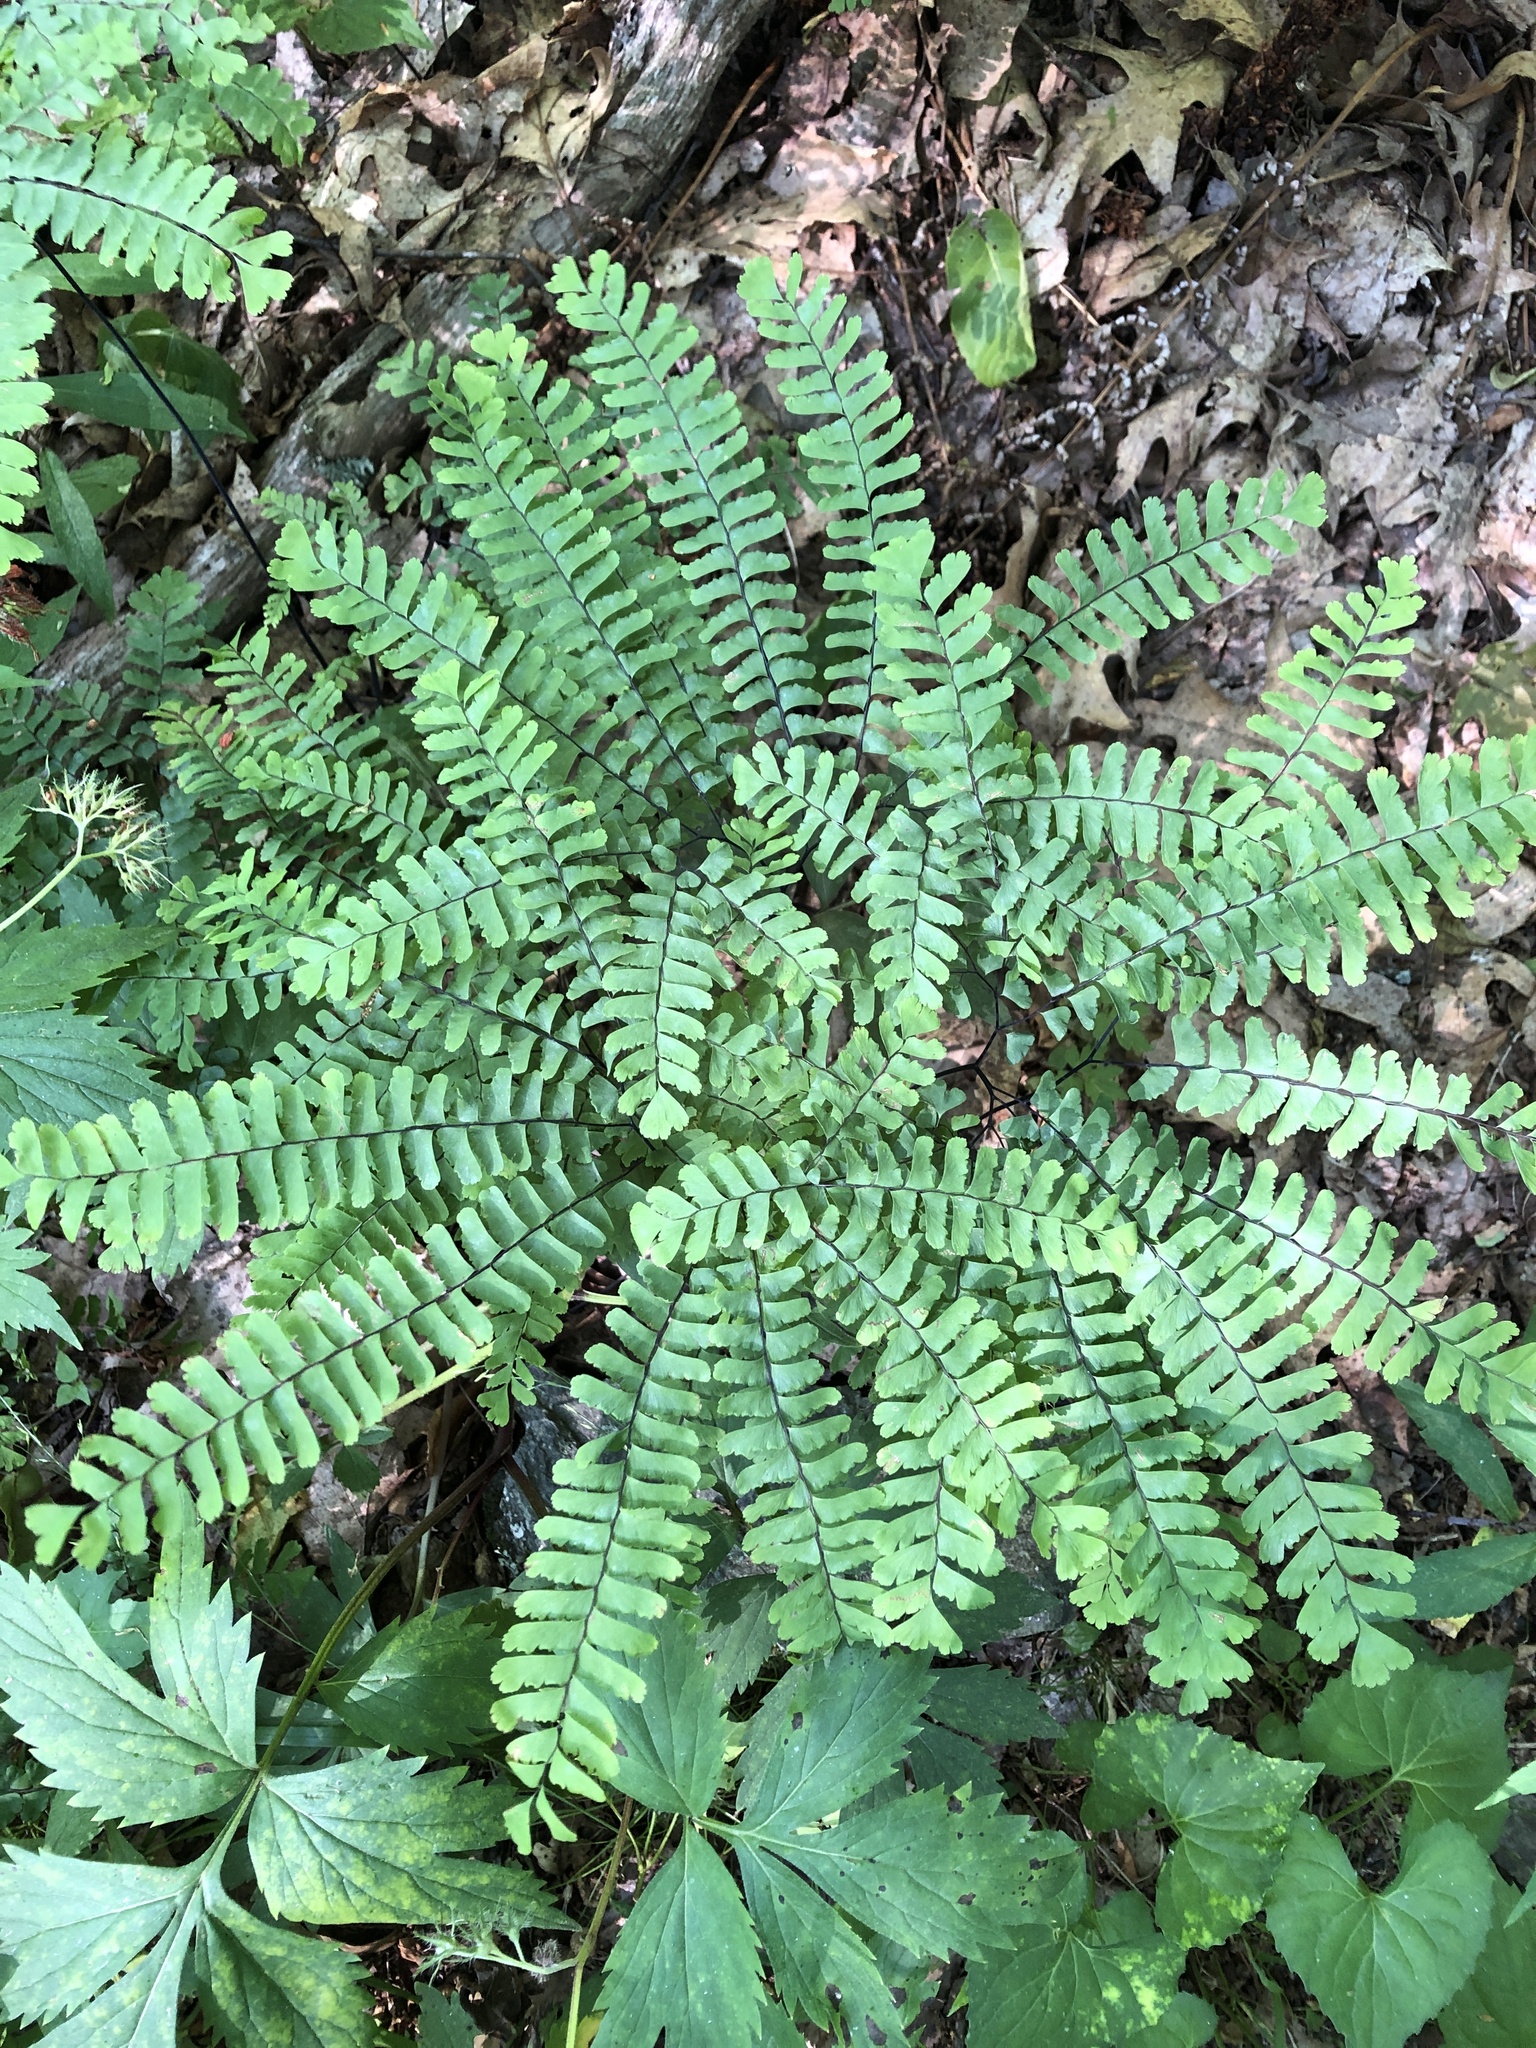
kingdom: Plantae
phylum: Tracheophyta
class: Polypodiopsida
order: Polypodiales
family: Pteridaceae
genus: Adiantum
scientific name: Adiantum pedatum
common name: Five-finger fern
